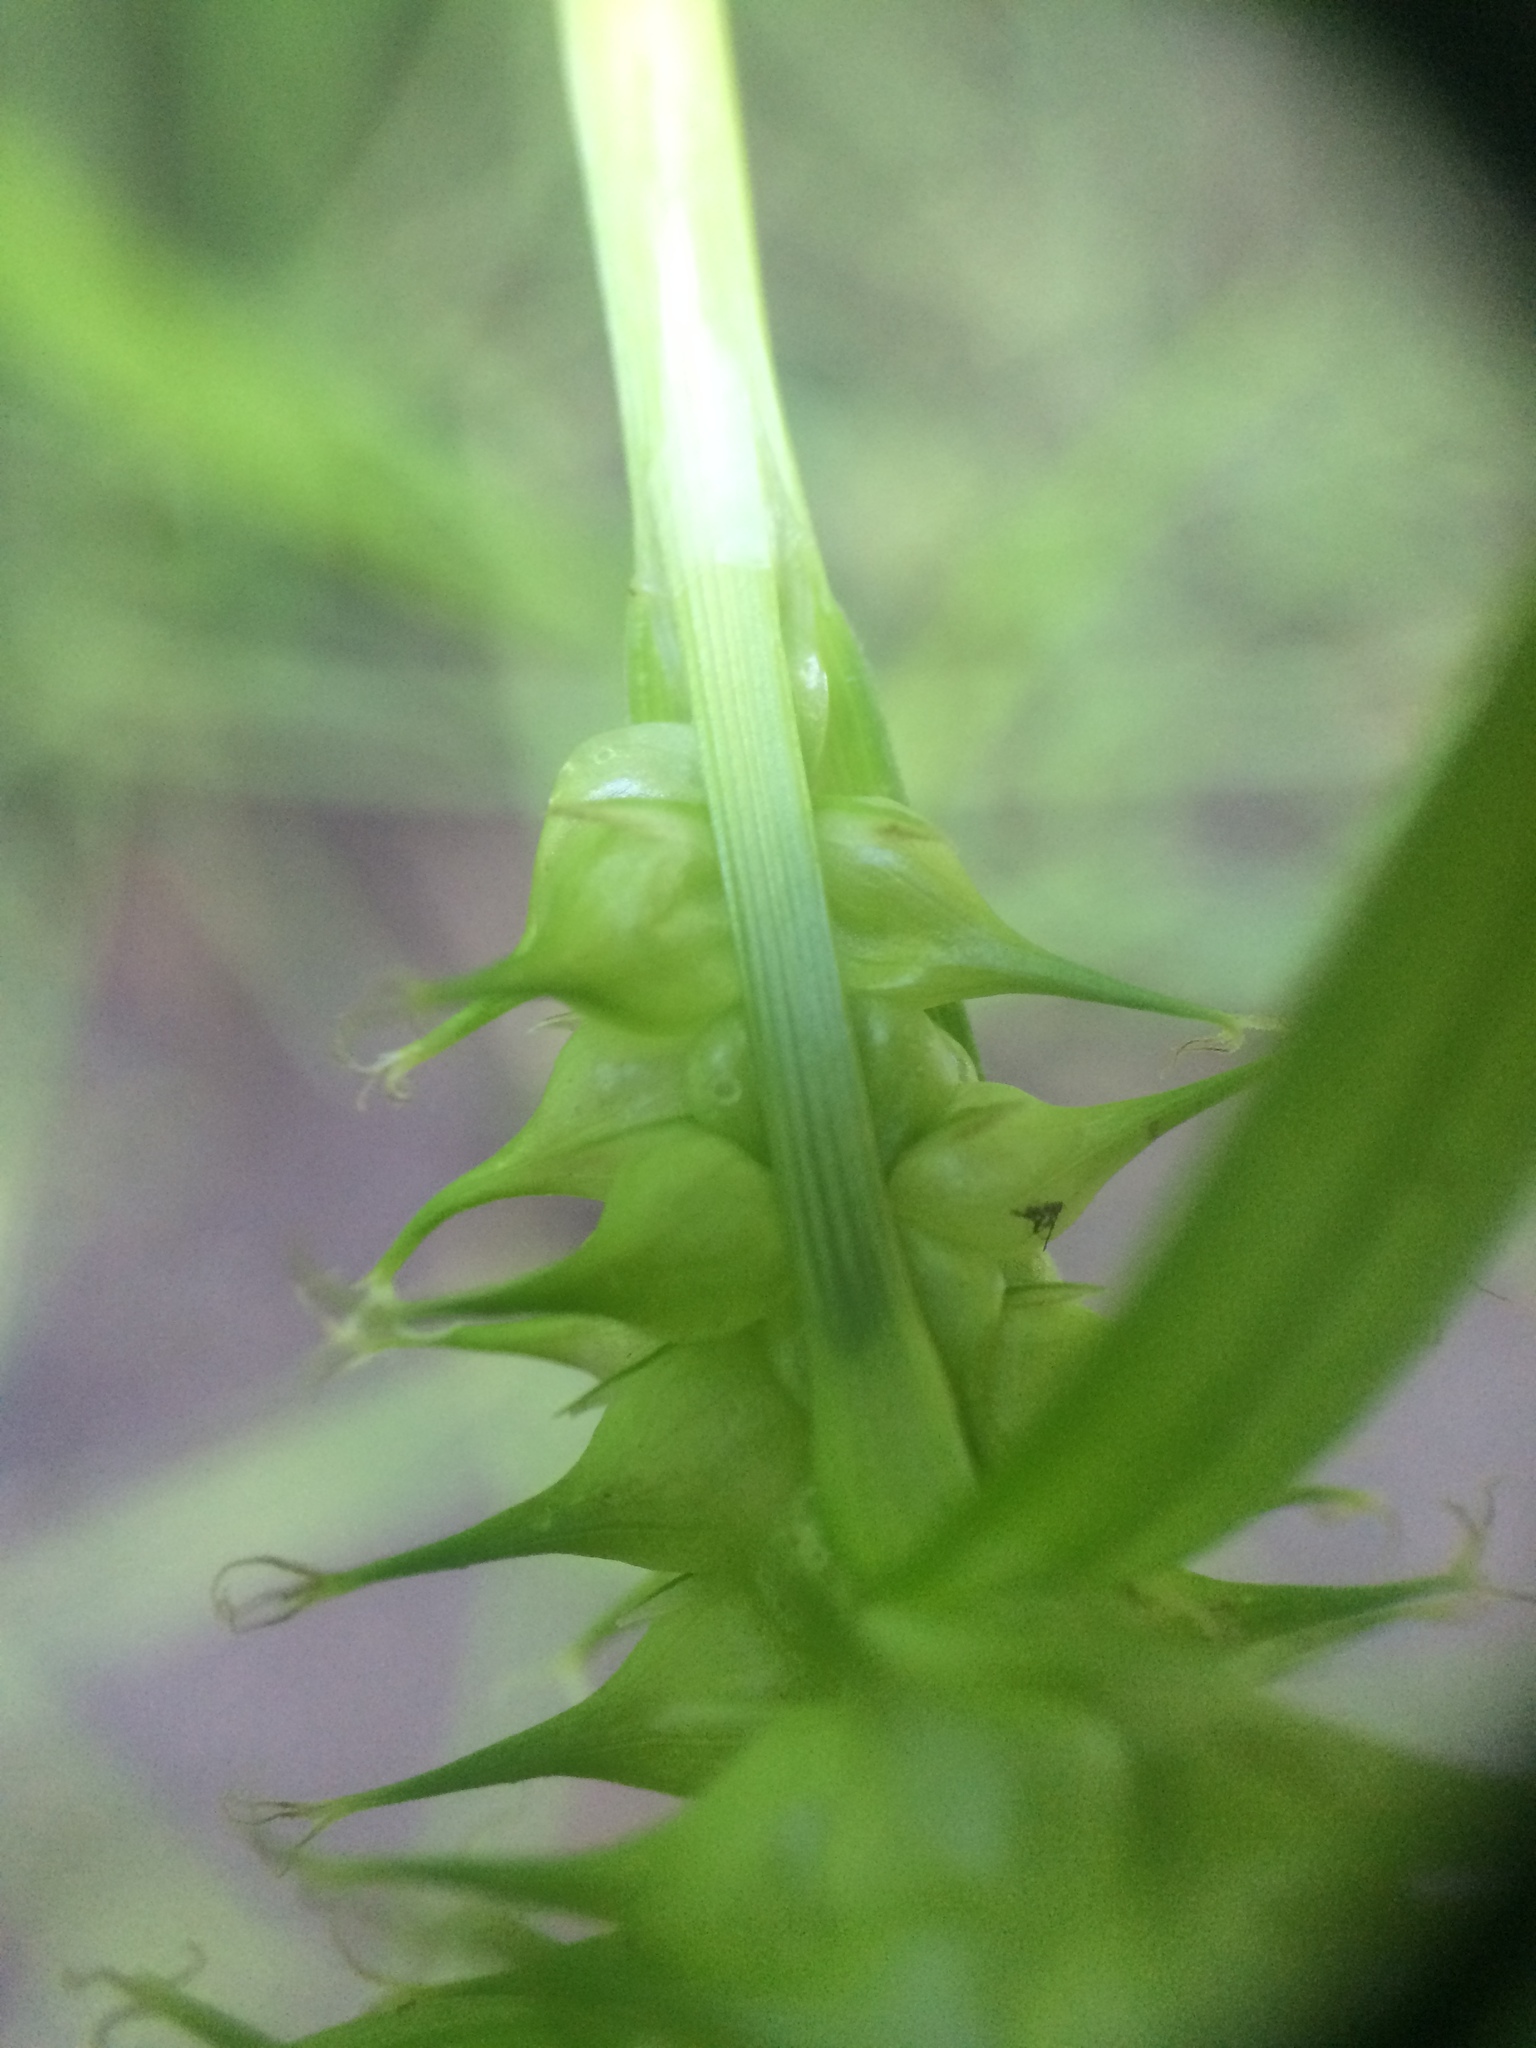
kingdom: Plantae
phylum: Tracheophyta
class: Liliopsida
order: Poales
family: Cyperaceae
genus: Carex
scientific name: Carex retrorsa
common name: Knot-sheath sedge
